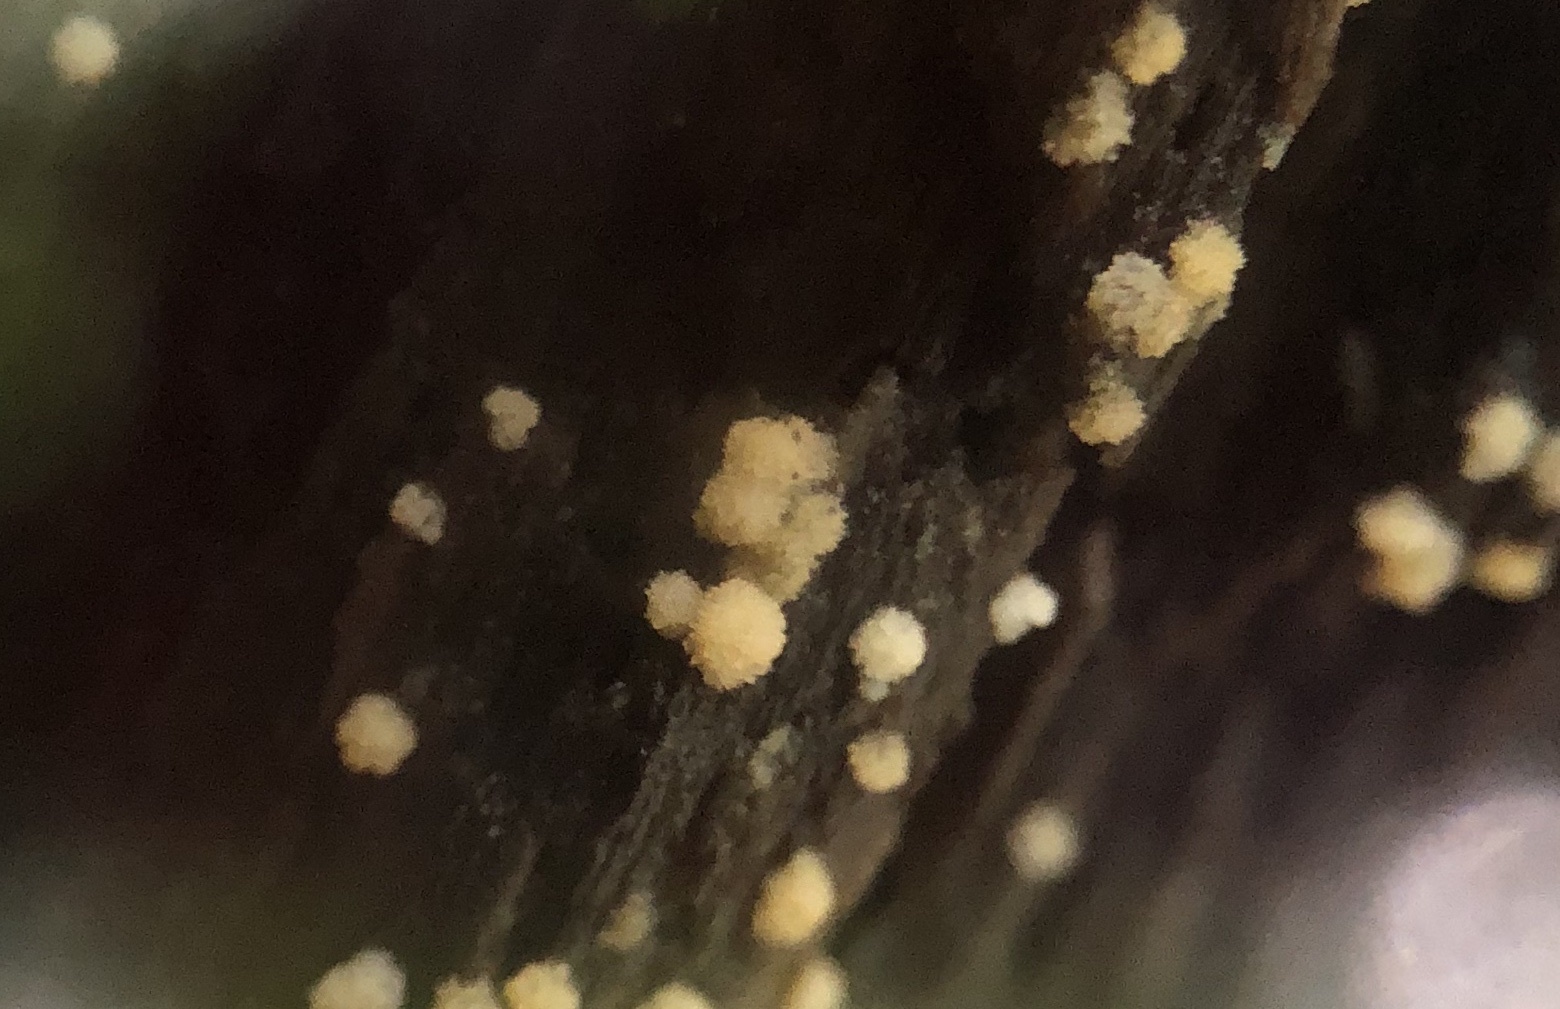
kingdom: Fungi
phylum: Ascomycota
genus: Bactridium
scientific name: Bactridium
